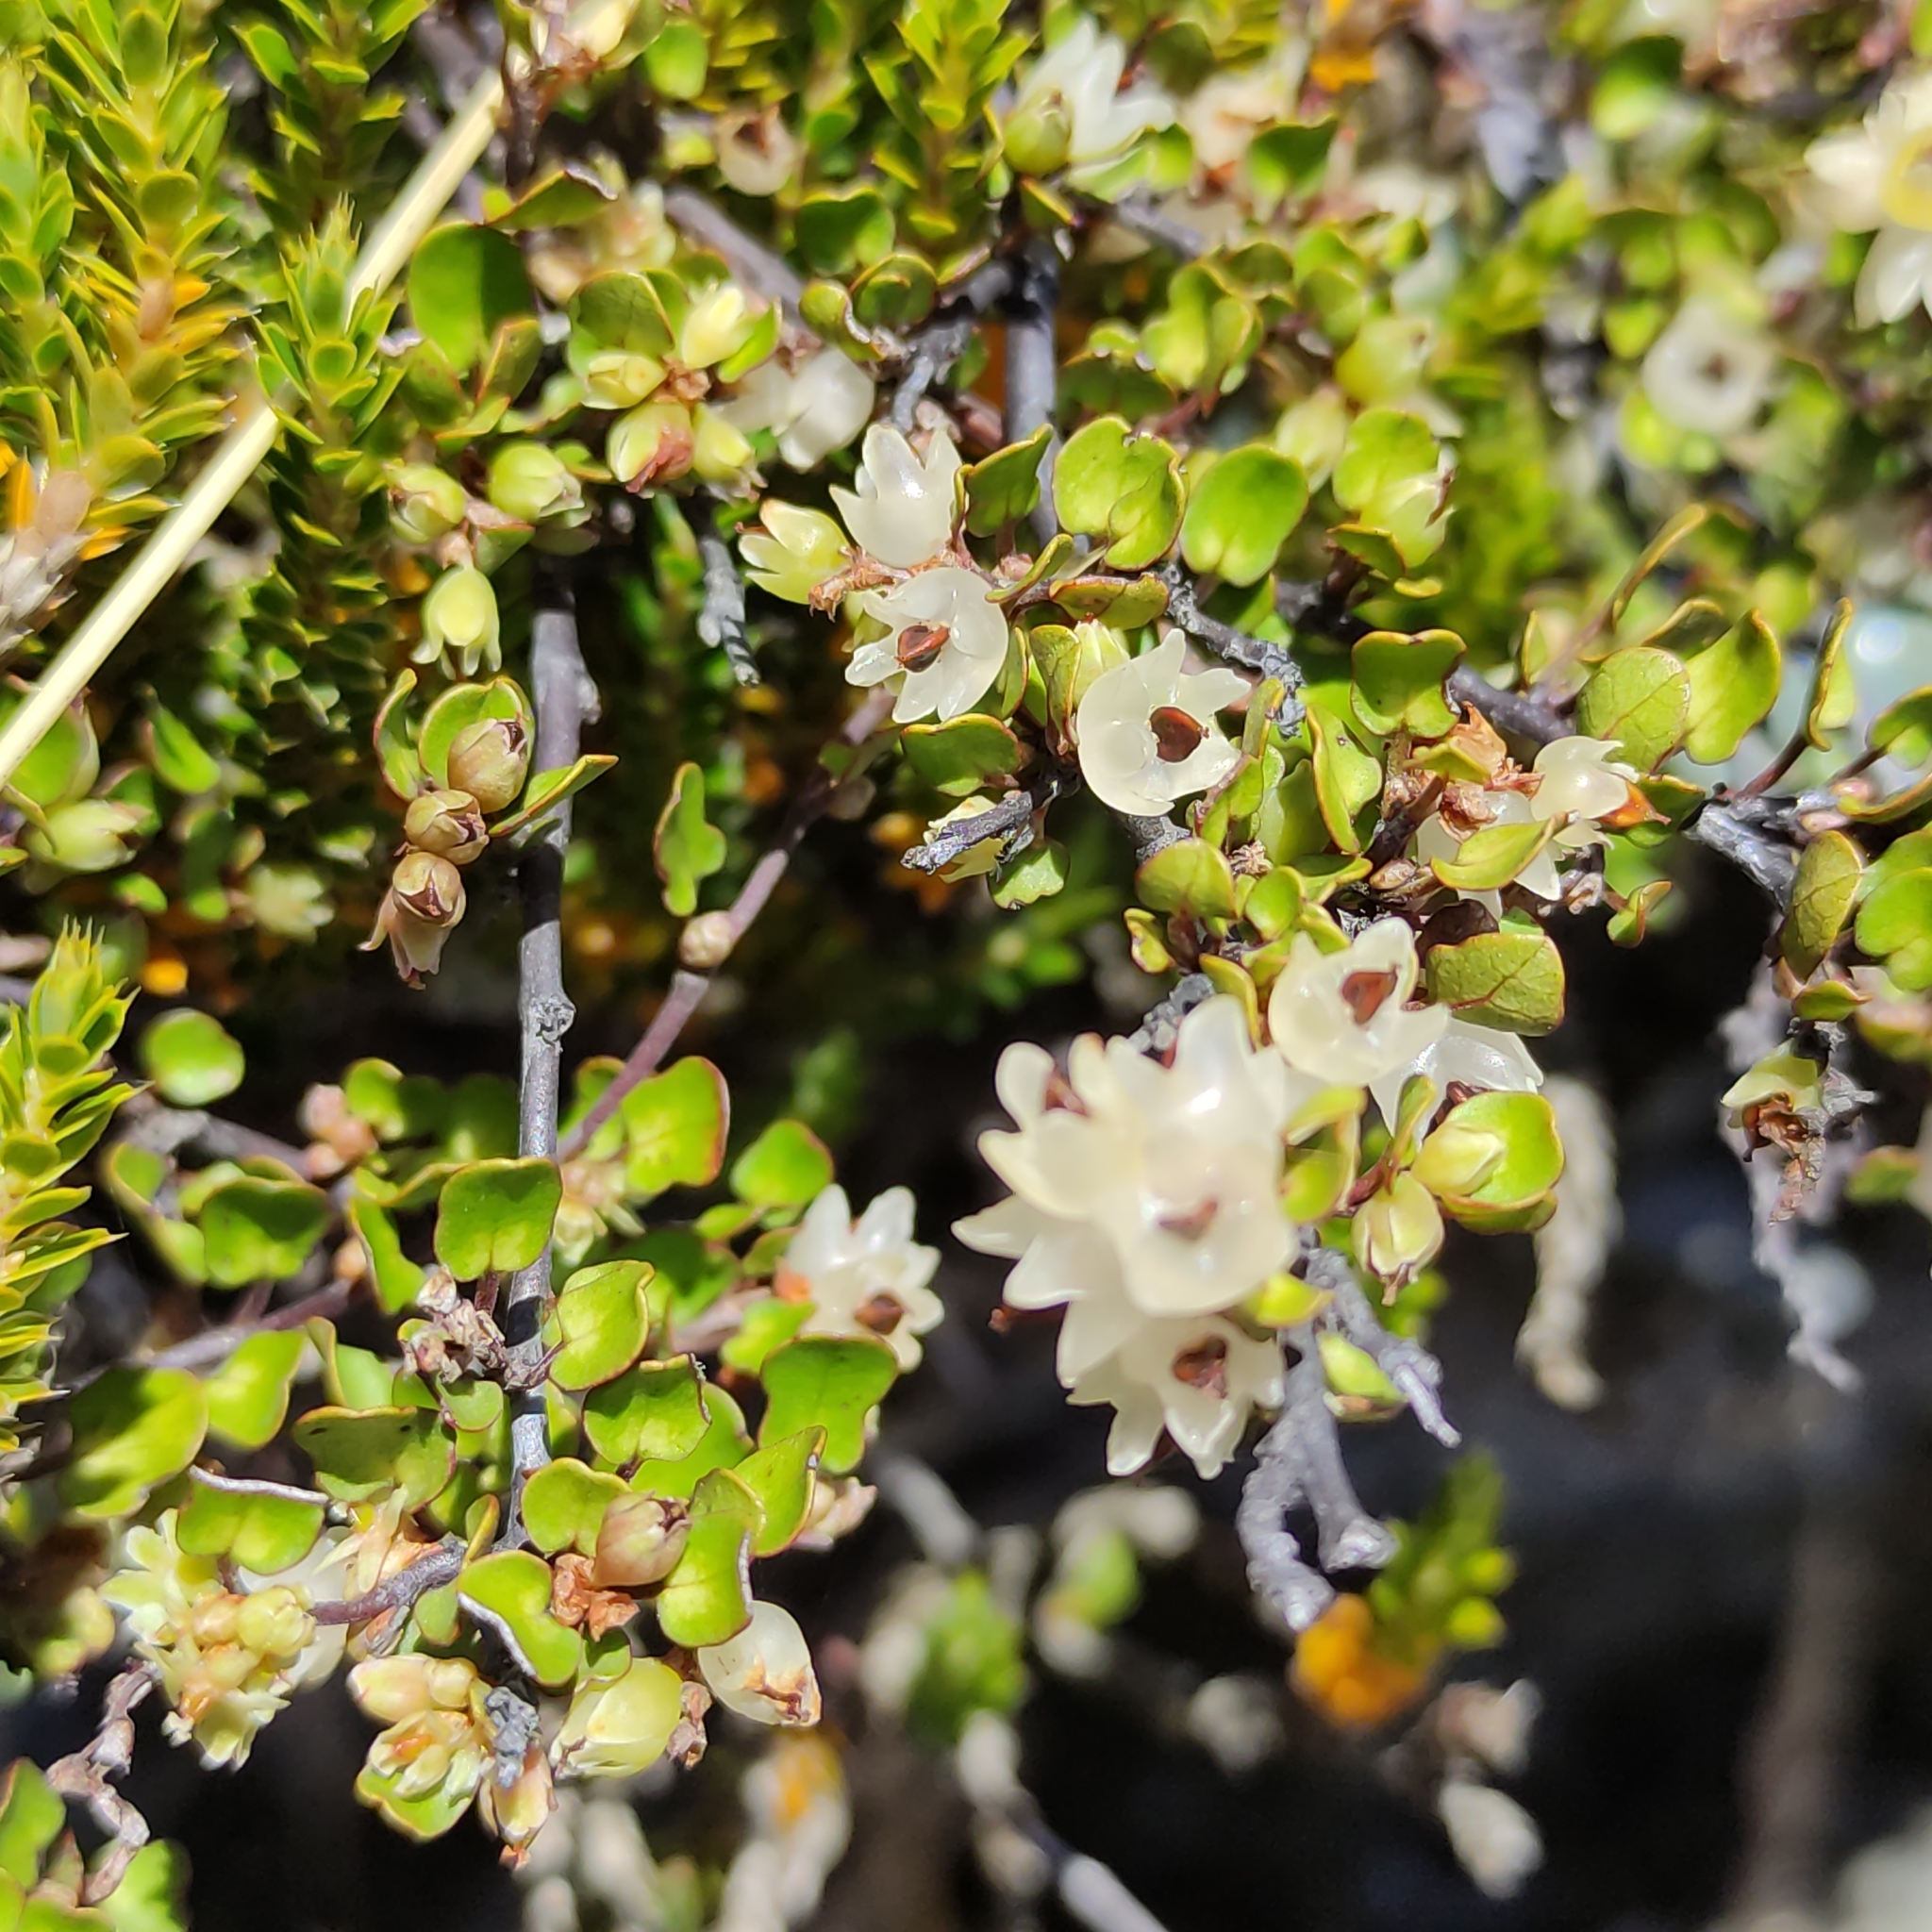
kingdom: Plantae
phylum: Tracheophyta
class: Magnoliopsida
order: Caryophyllales
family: Polygonaceae
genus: Muehlenbeckia
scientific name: Muehlenbeckia complexa
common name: Wireplant
